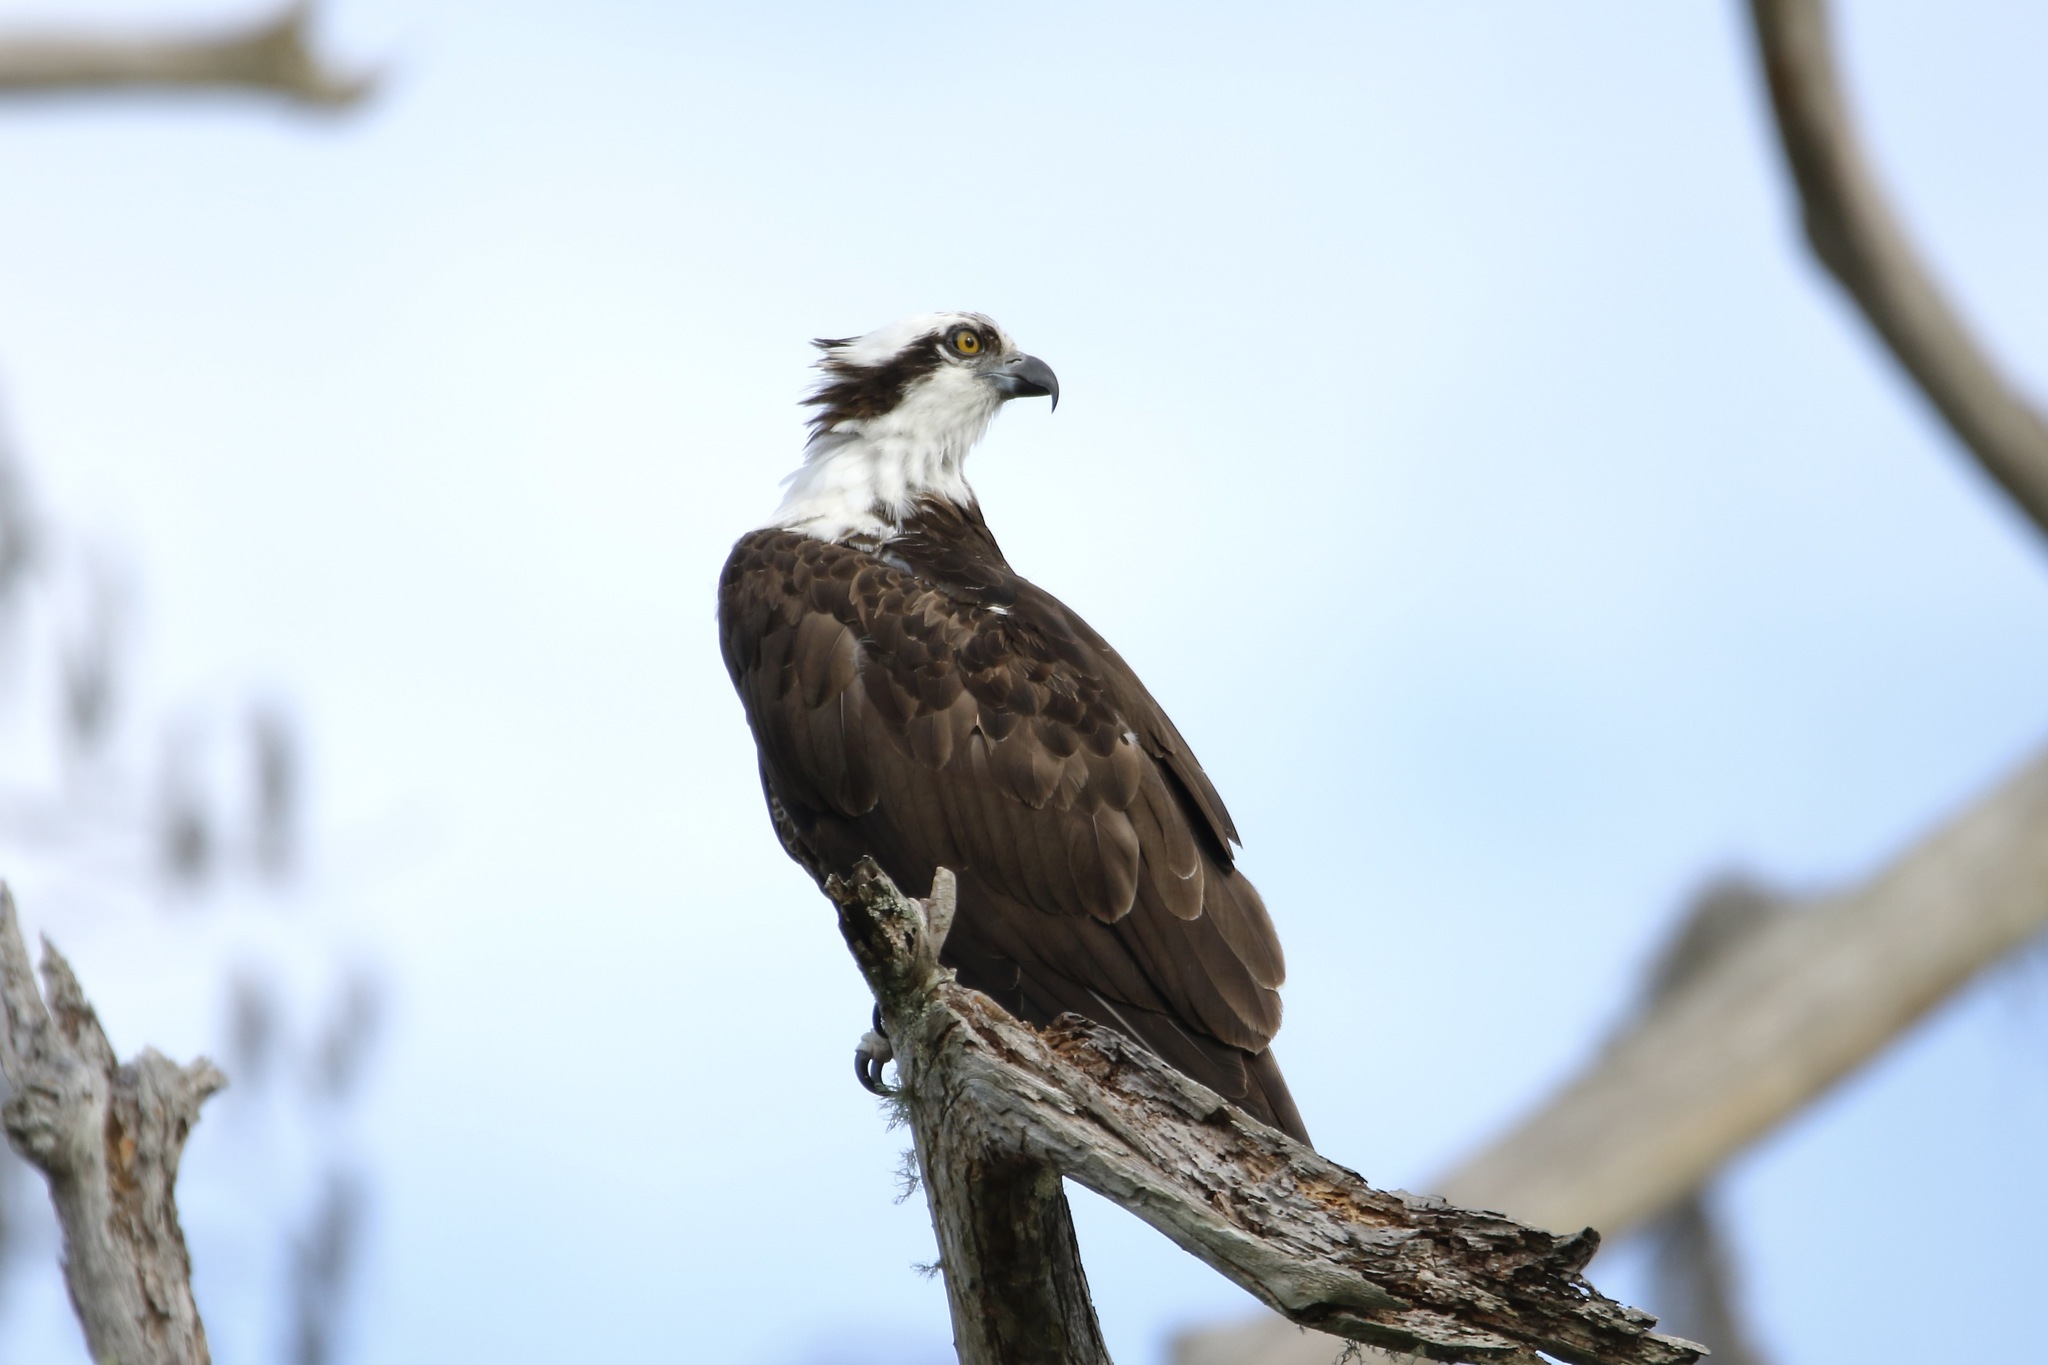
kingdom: Animalia
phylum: Chordata
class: Aves
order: Accipitriformes
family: Pandionidae
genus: Pandion
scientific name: Pandion haliaetus
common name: Osprey
